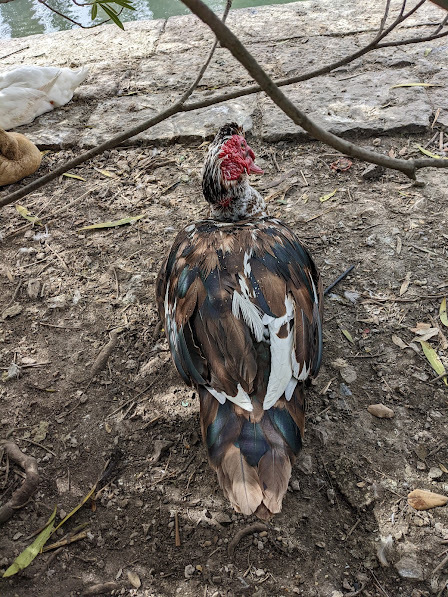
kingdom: Animalia
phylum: Chordata
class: Aves
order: Anseriformes
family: Anatidae
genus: Cairina
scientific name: Cairina moschata
